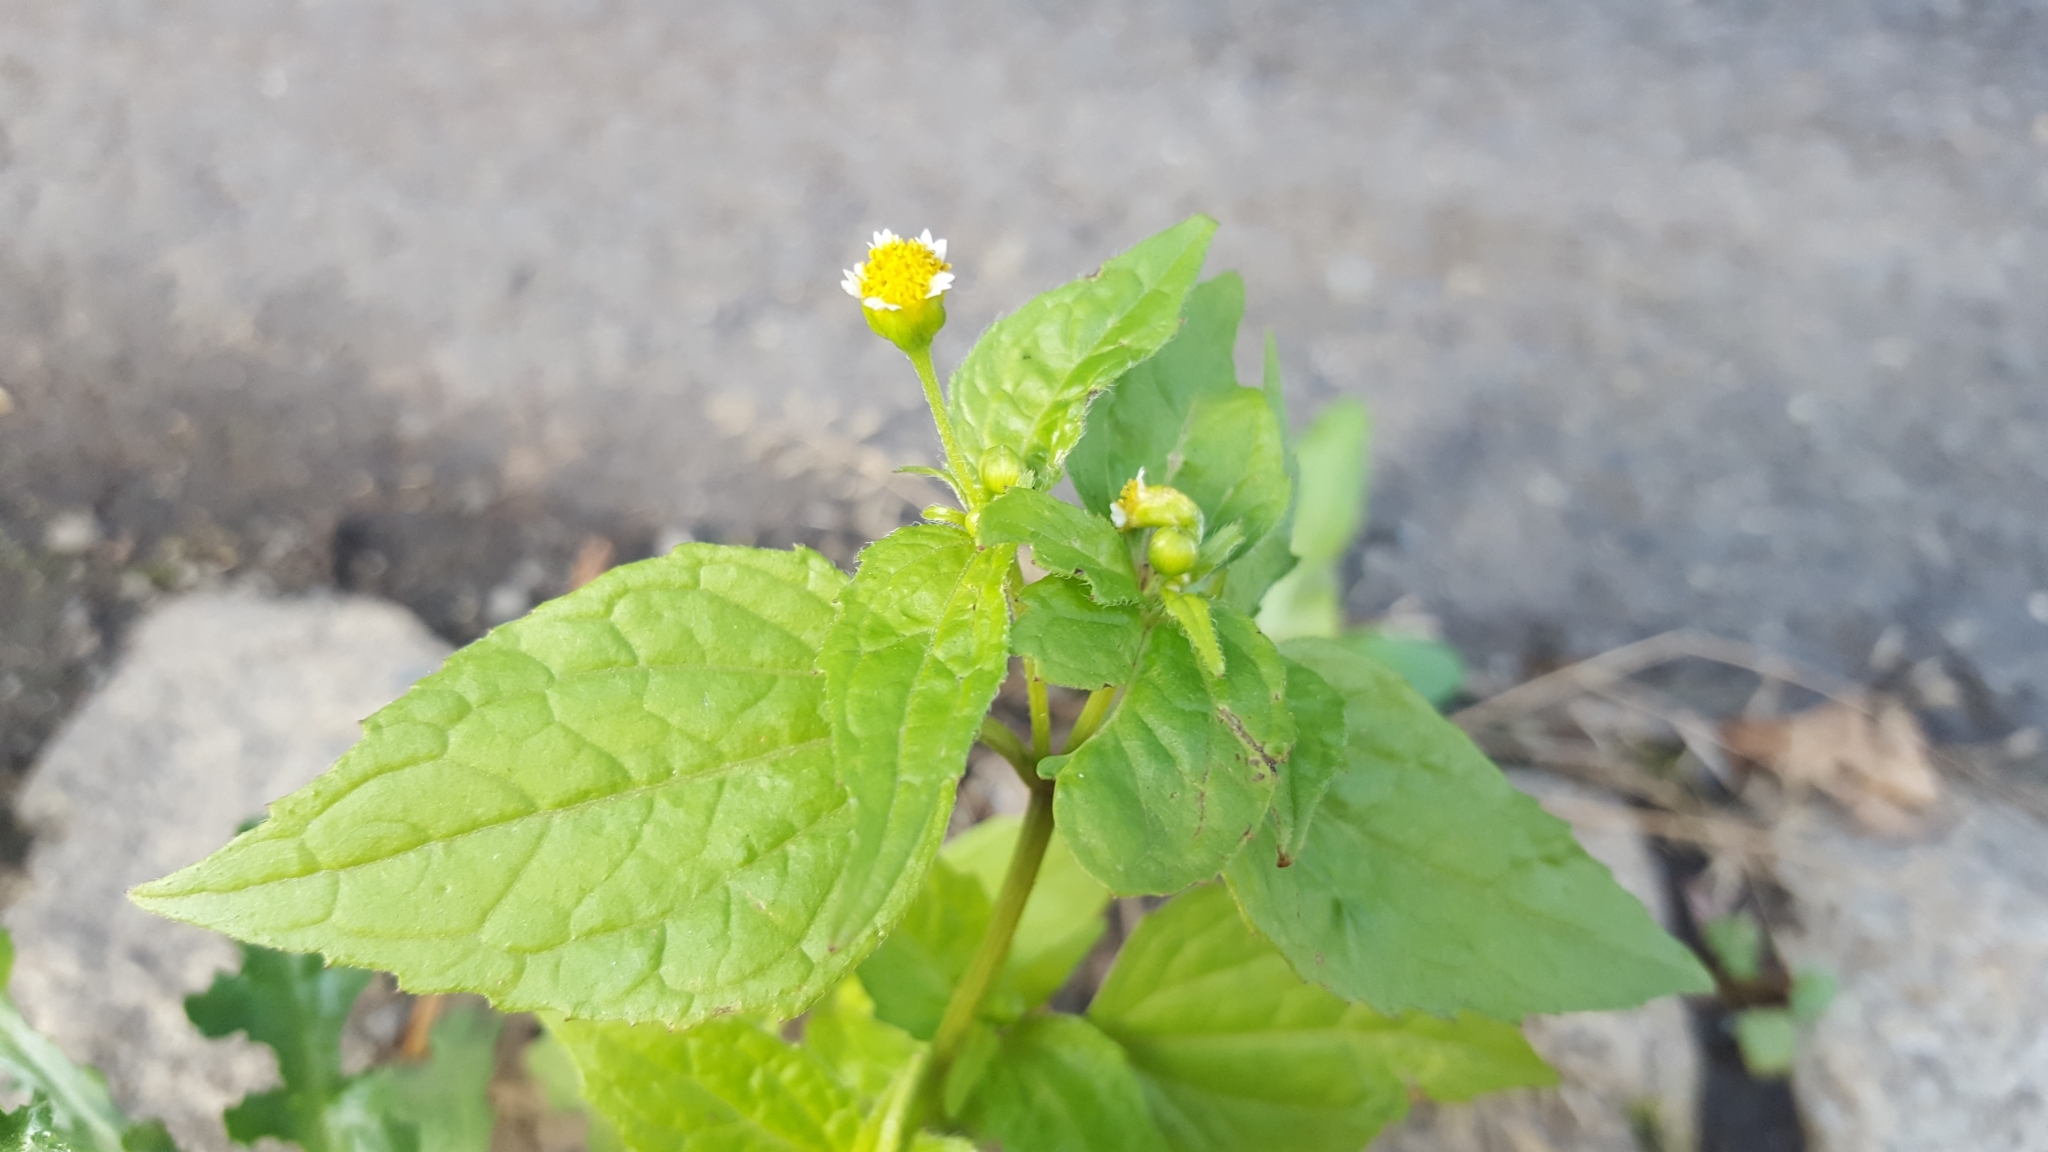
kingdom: Plantae
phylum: Tracheophyta
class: Magnoliopsida
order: Asterales
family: Asteraceae
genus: Galinsoga
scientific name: Galinsoga parviflora
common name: Gallant soldier
